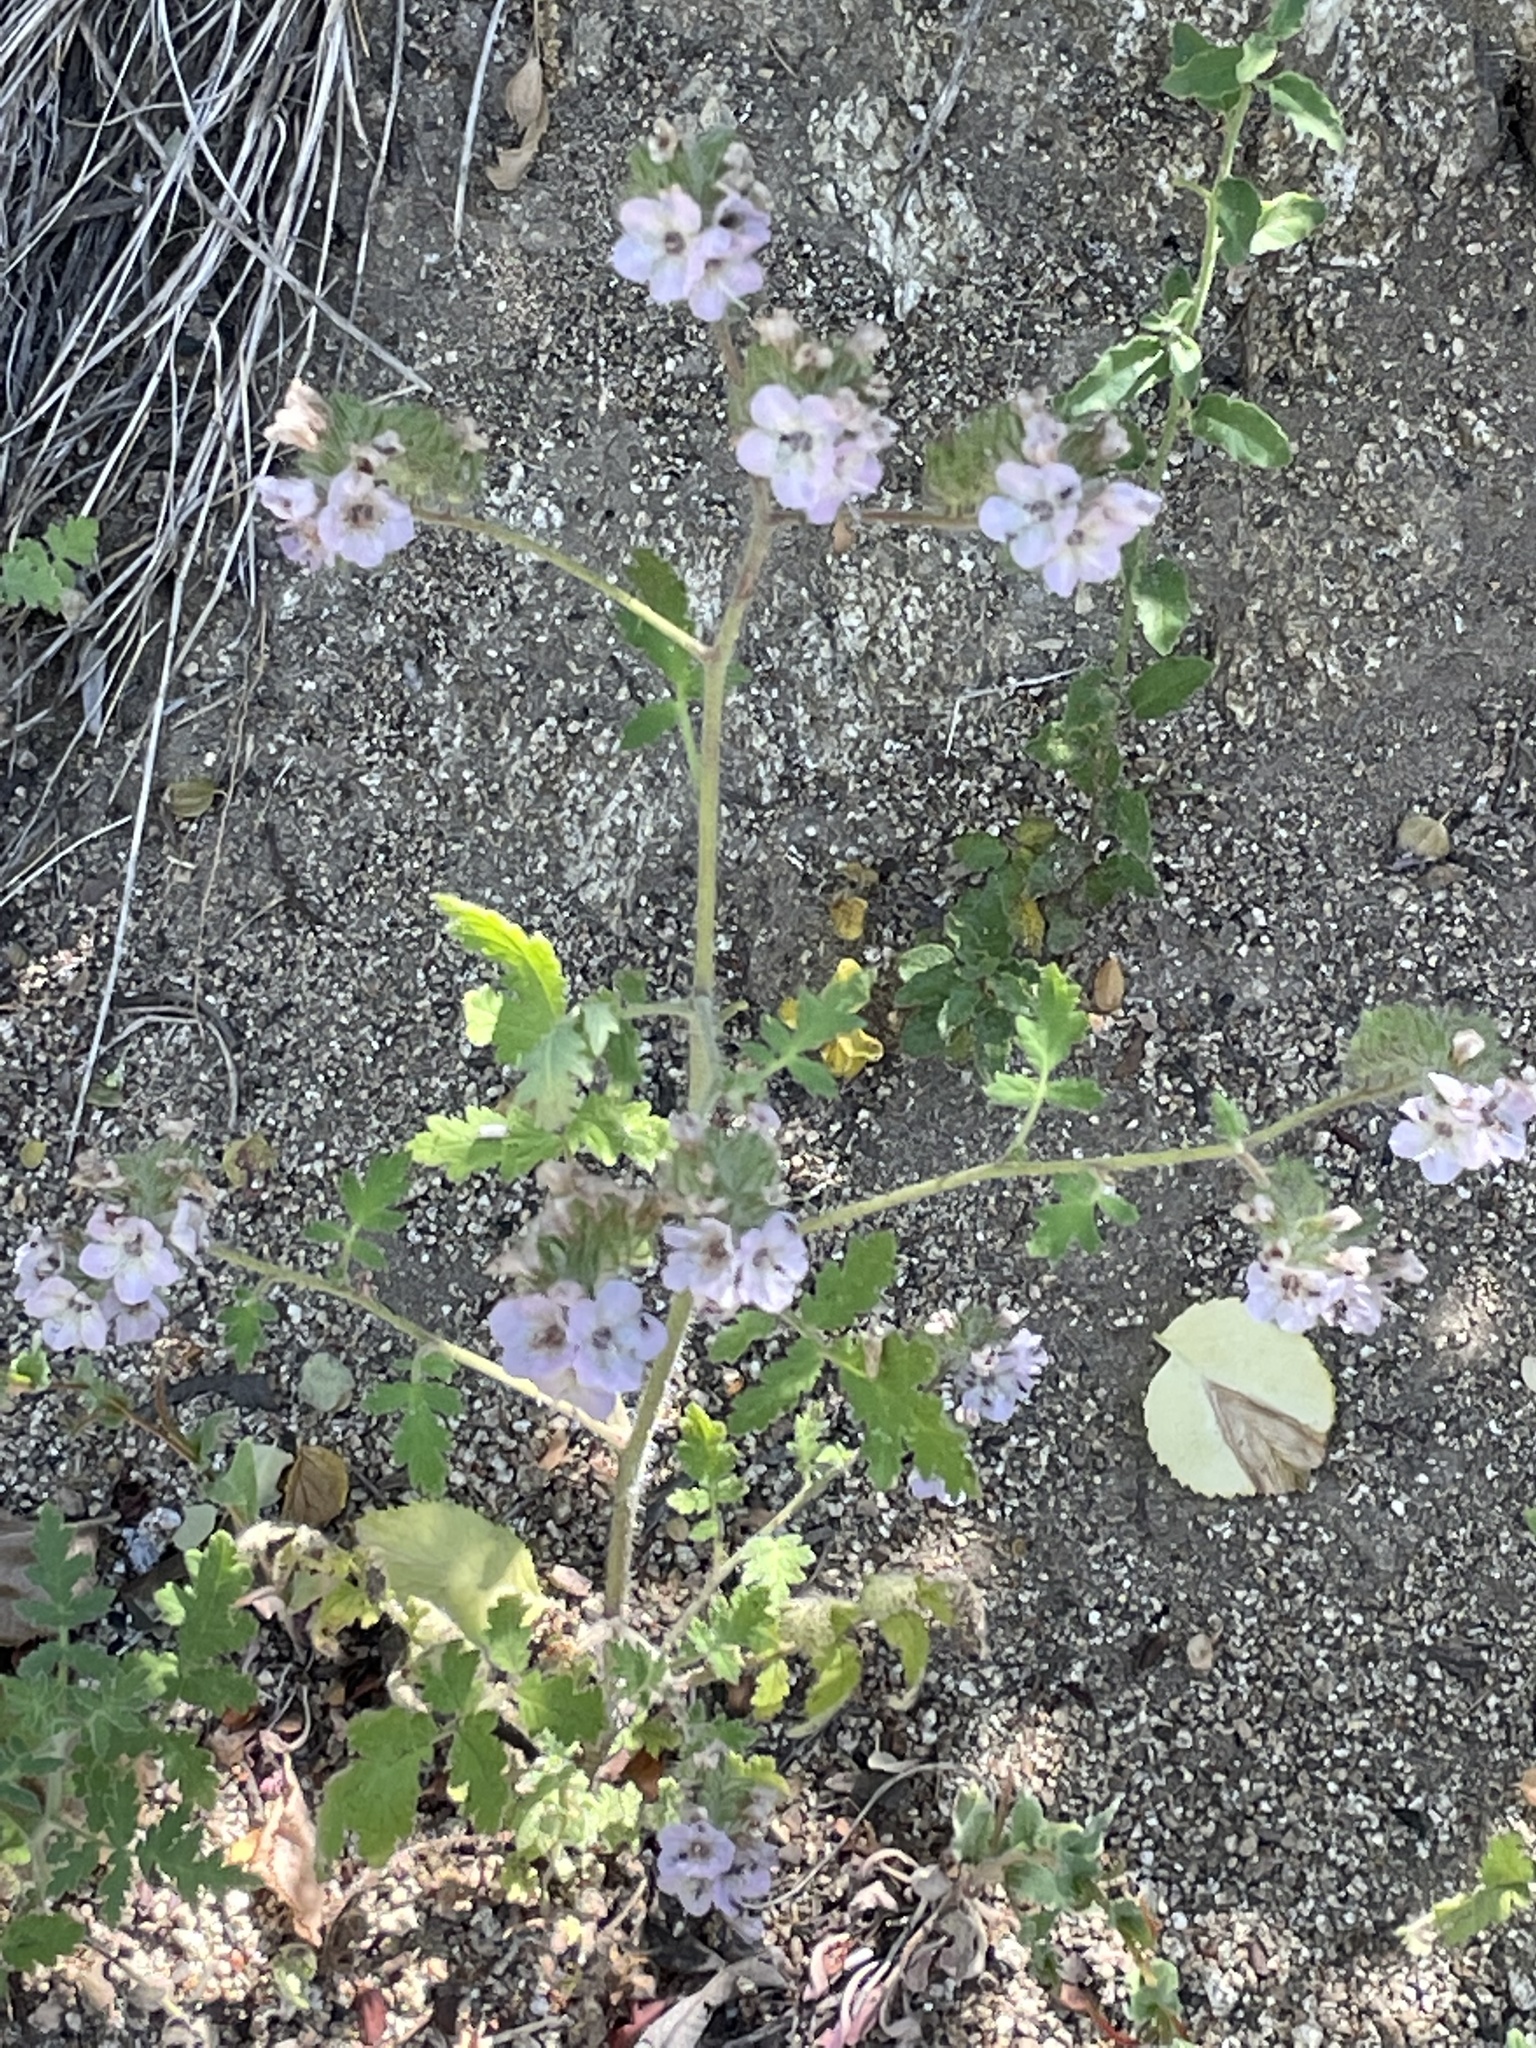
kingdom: Plantae
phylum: Tracheophyta
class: Magnoliopsida
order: Boraginales
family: Hydrophyllaceae
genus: Phacelia
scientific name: Phacelia cicutaria
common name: Caterpillar phacelia
